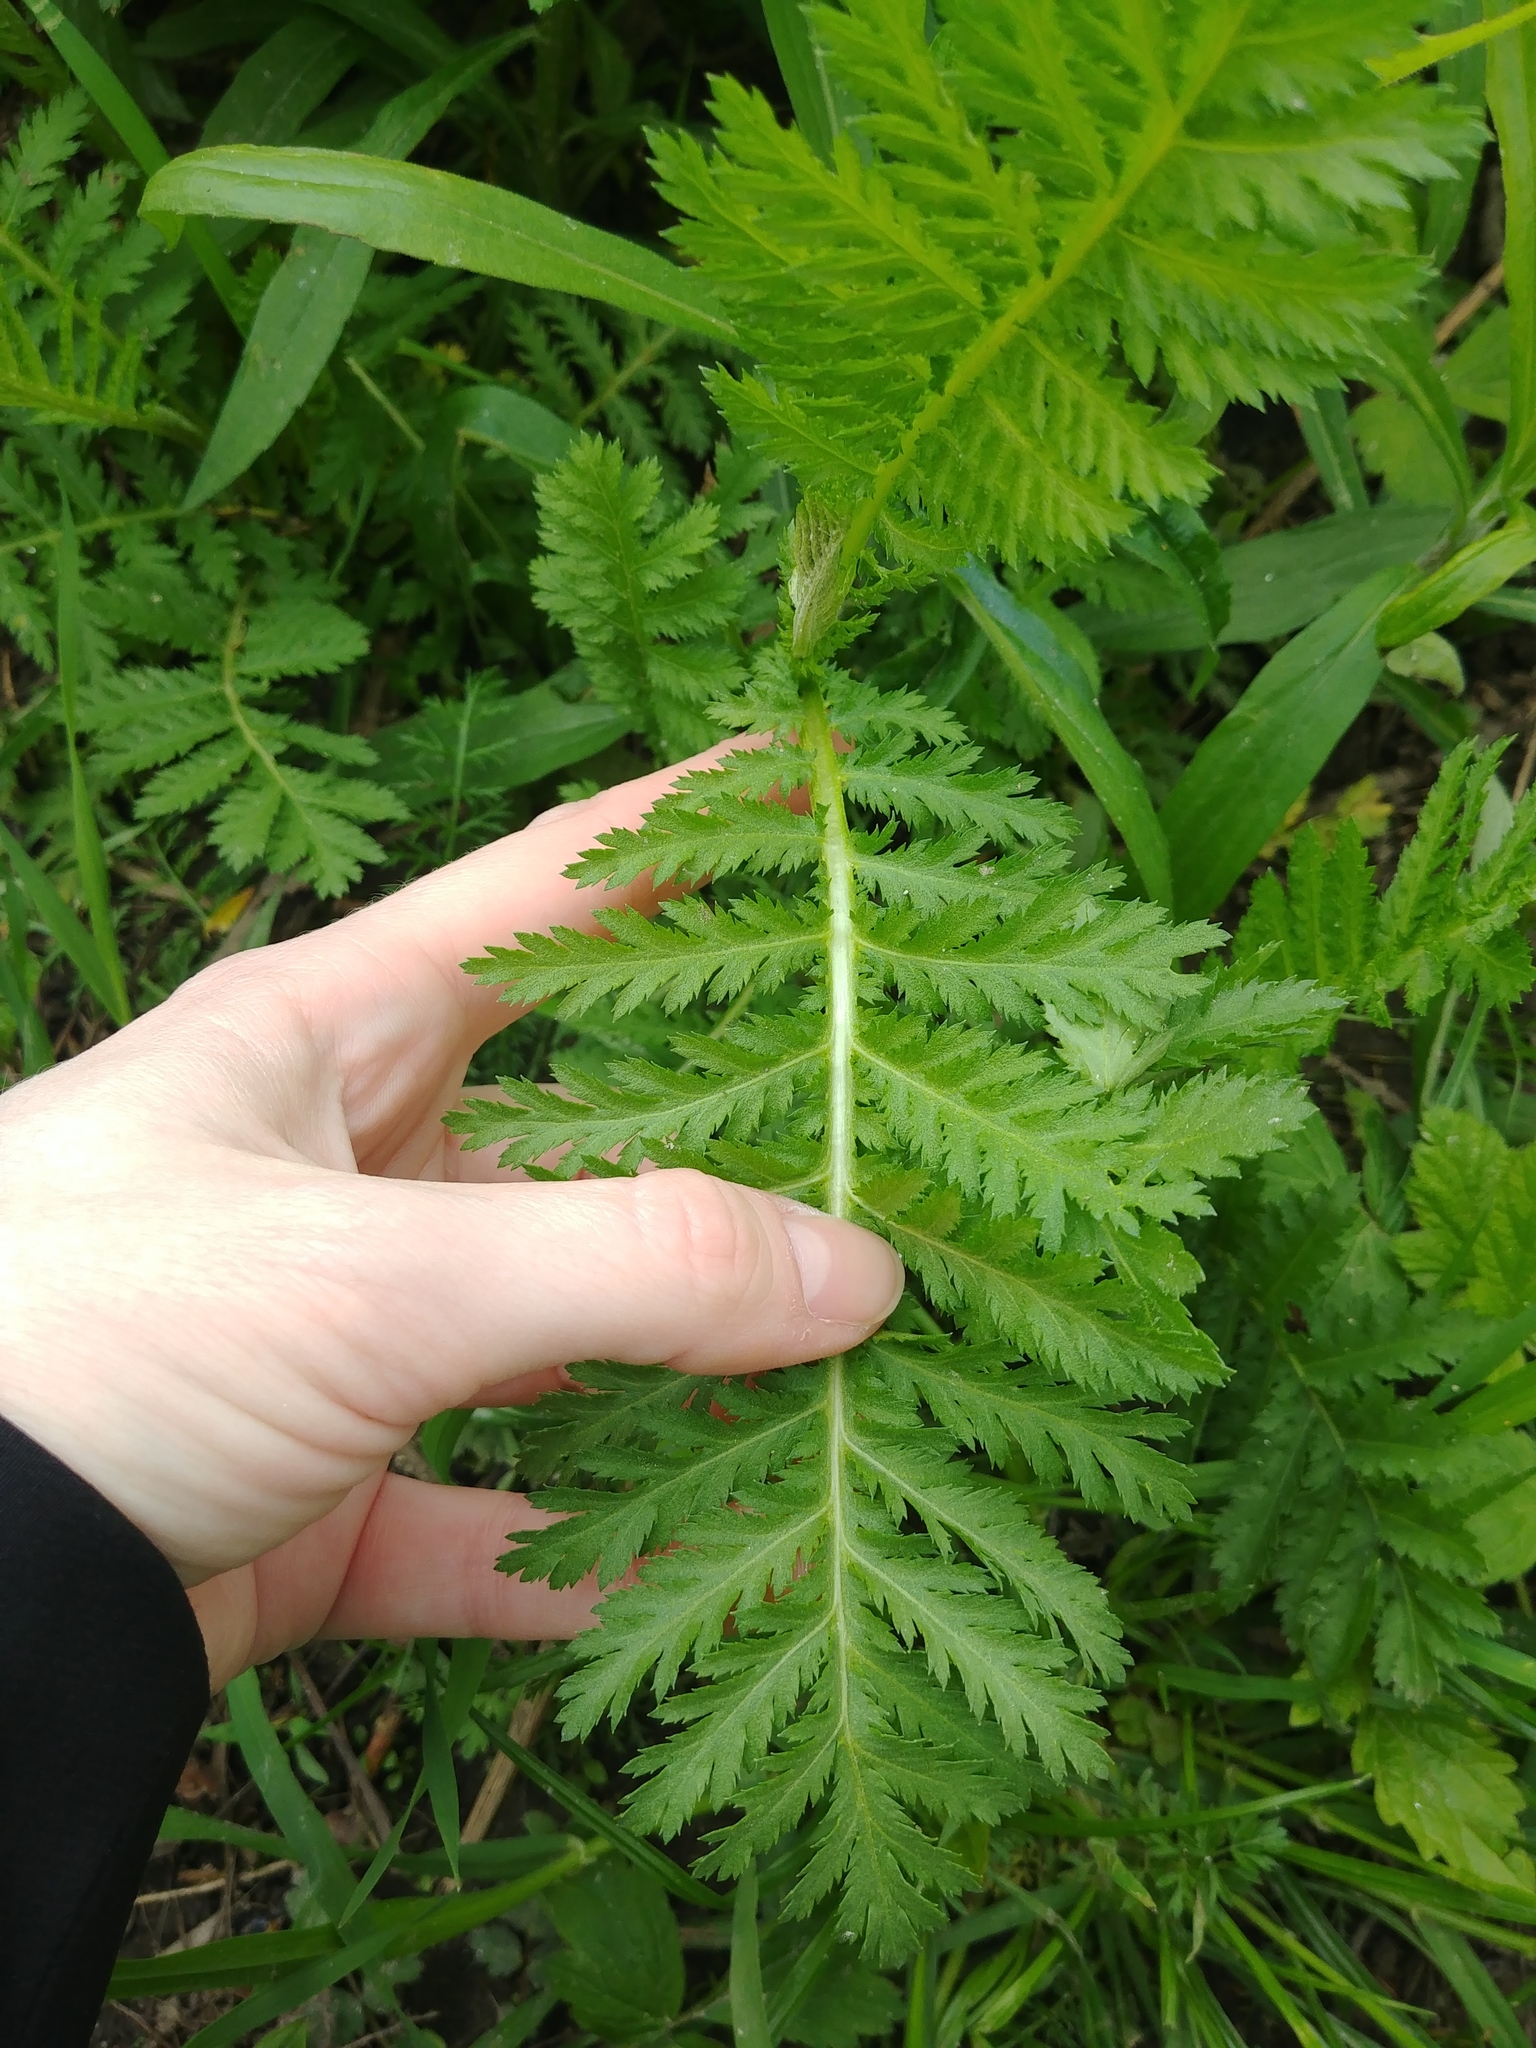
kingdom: Plantae
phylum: Tracheophyta
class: Magnoliopsida
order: Asterales
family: Asteraceae
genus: Tanacetum
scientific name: Tanacetum vulgare
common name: Common tansy
